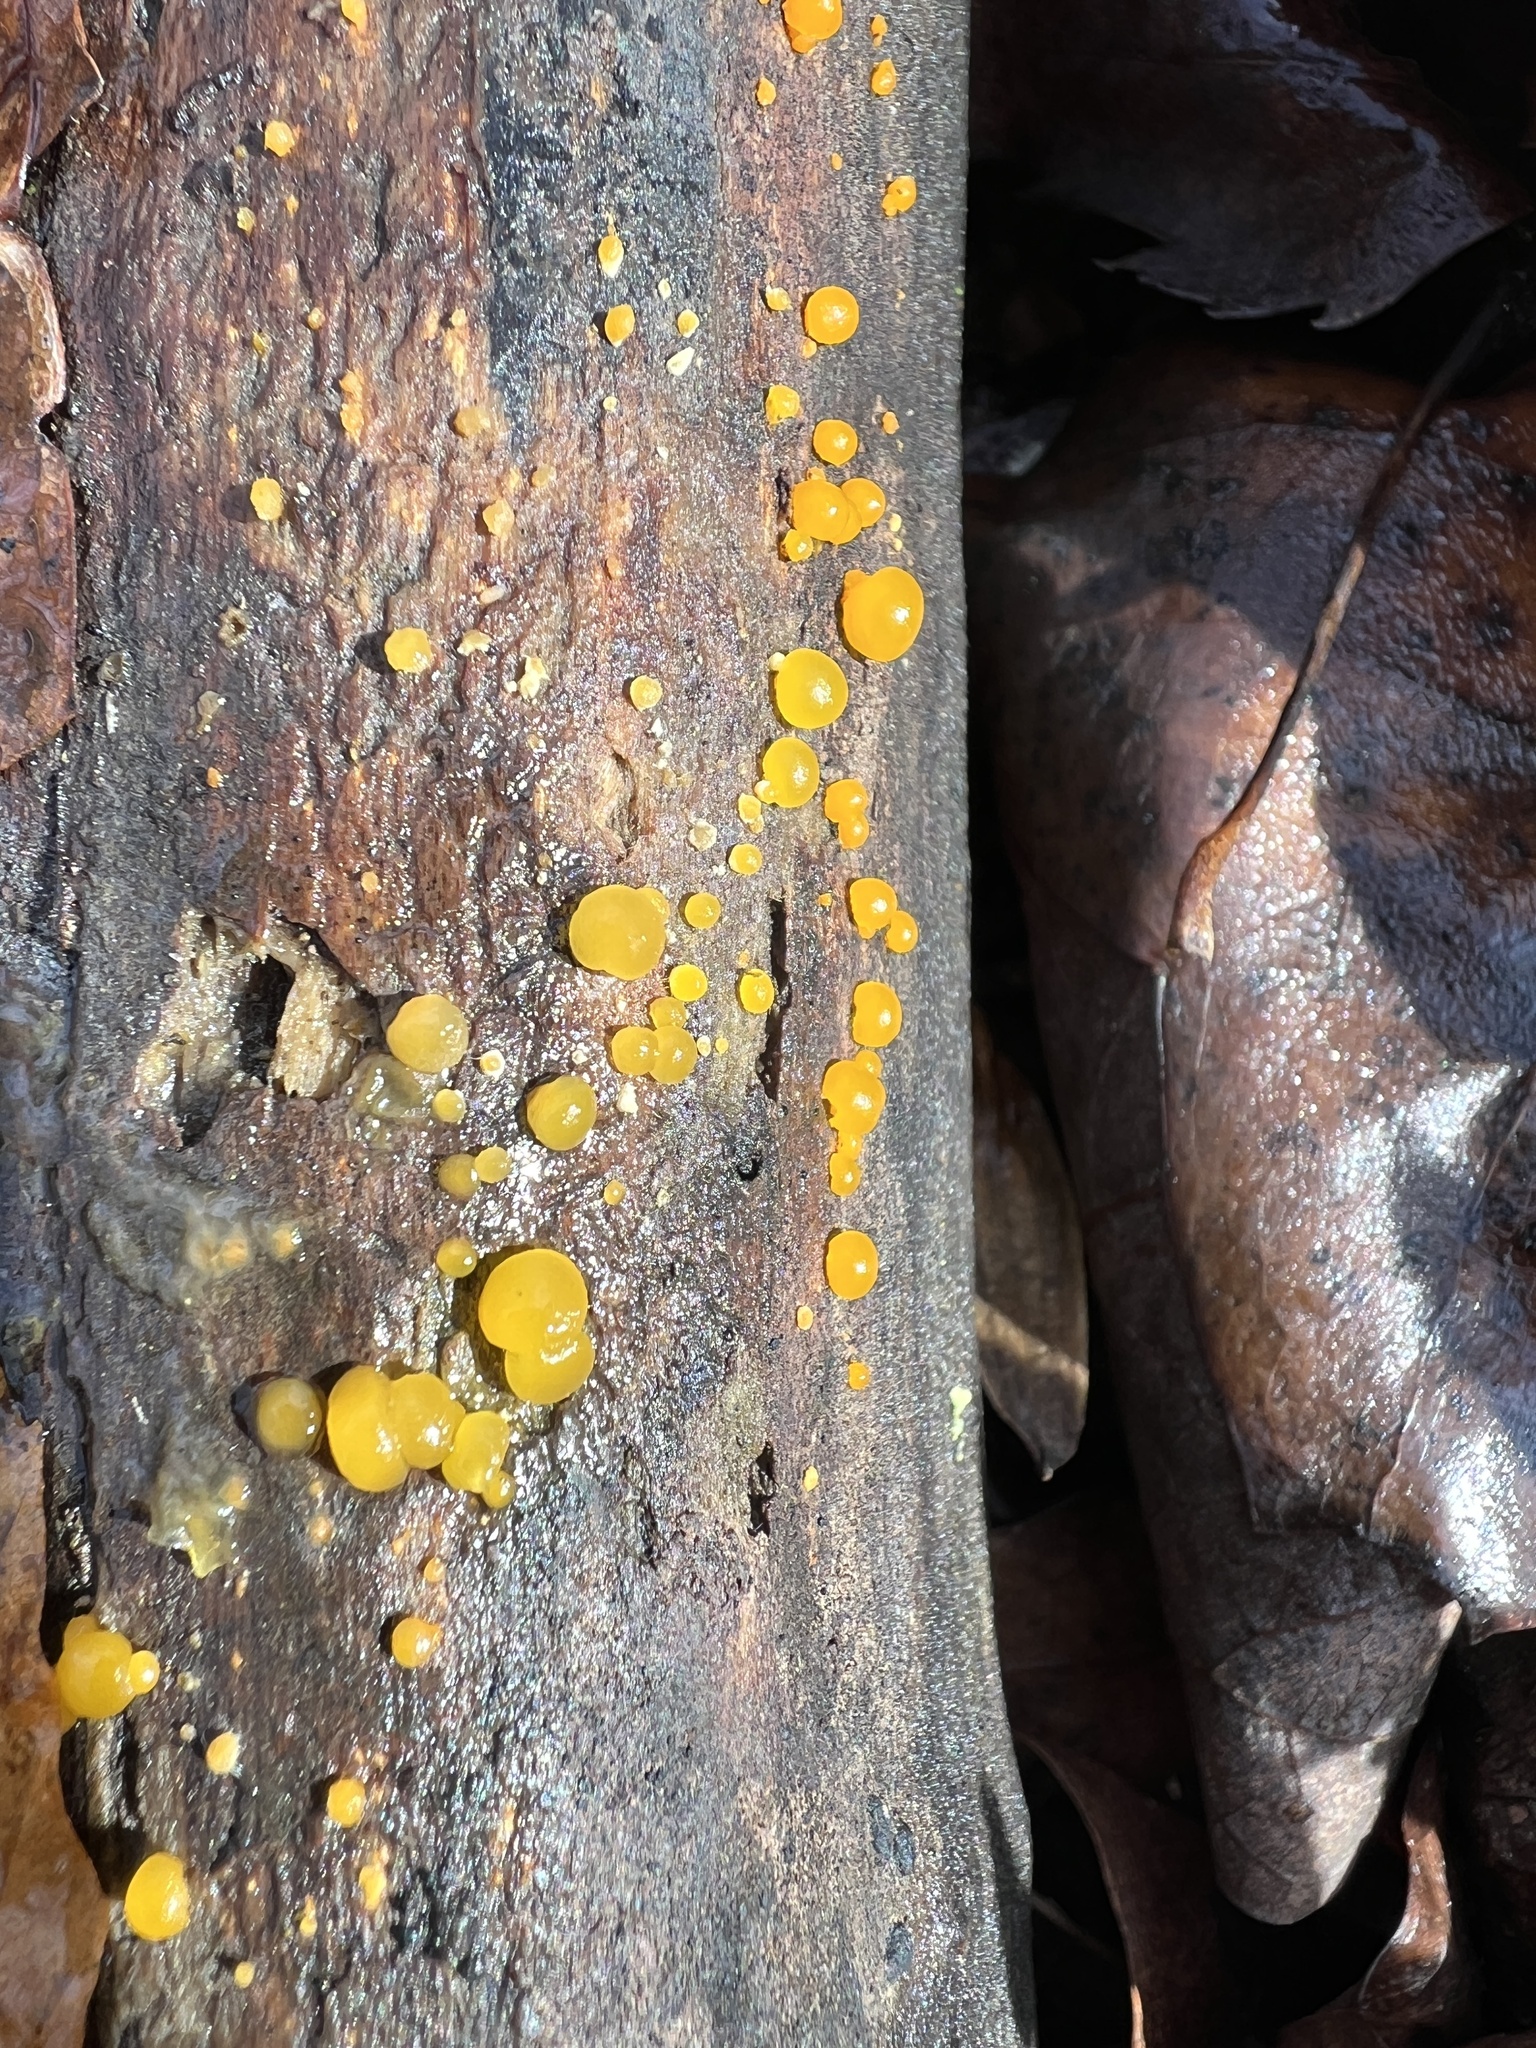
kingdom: Fungi
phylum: Basidiomycota
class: Dacrymycetes
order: Dacrymycetales
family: Dacrymycetaceae
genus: Dacrymyces
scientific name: Dacrymyces stillatus
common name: Common jelly spot
